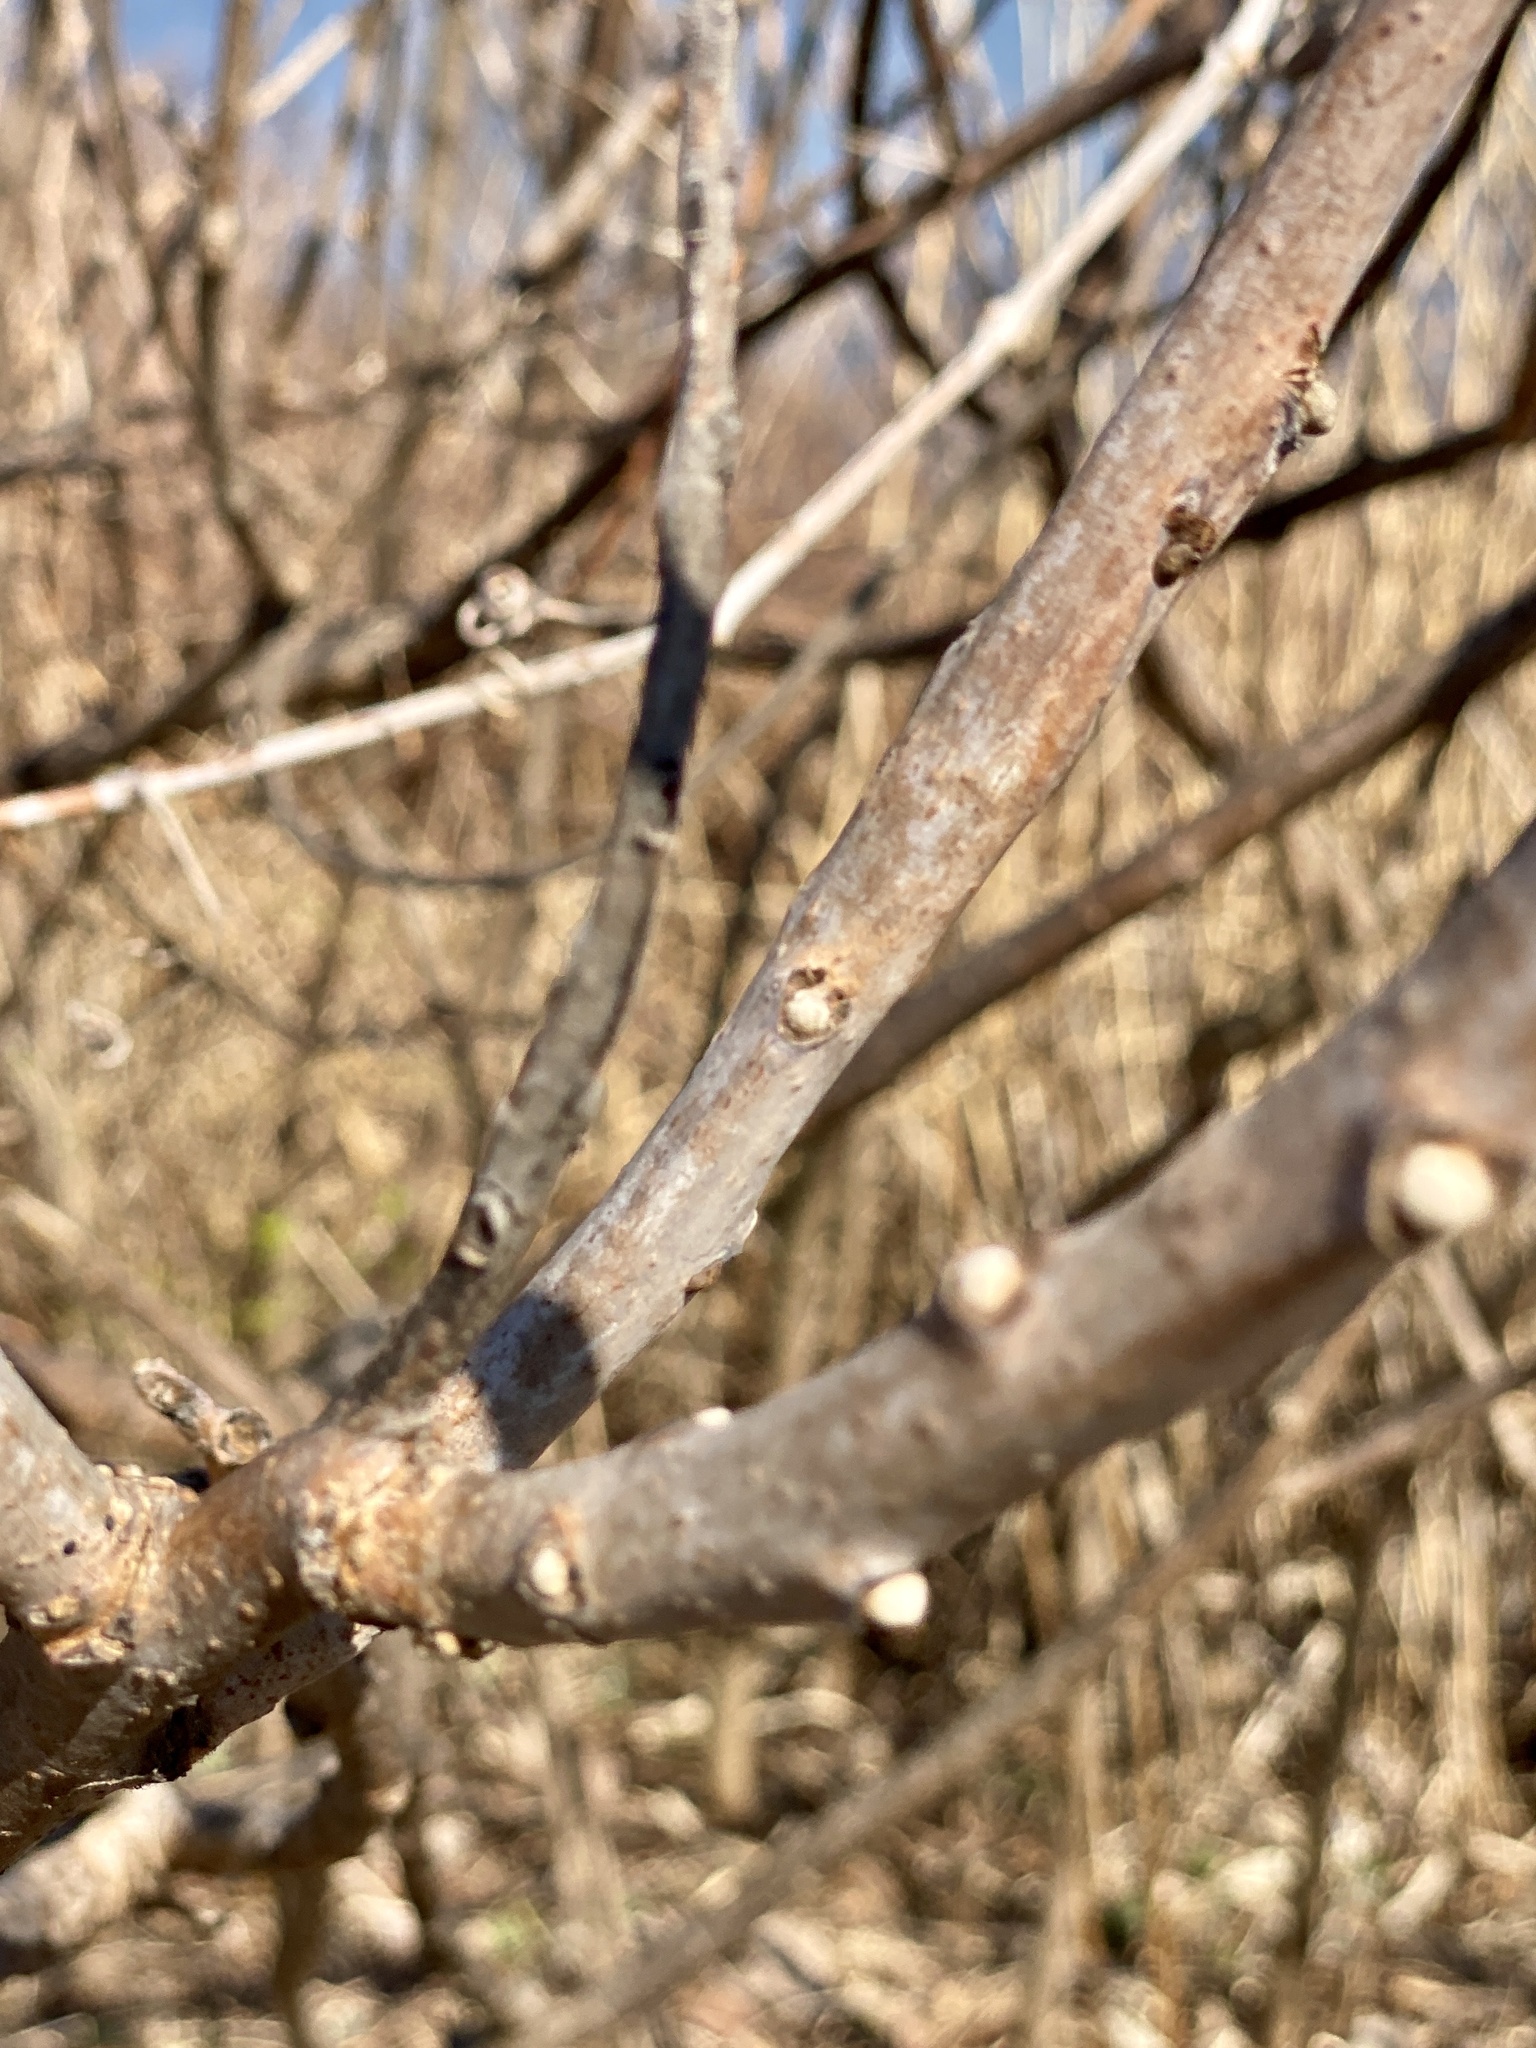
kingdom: Plantae
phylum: Tracheophyta
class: Magnoliopsida
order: Sapindales
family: Anacardiaceae
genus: Rhus
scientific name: Rhus glabra
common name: Scarlet sumac
